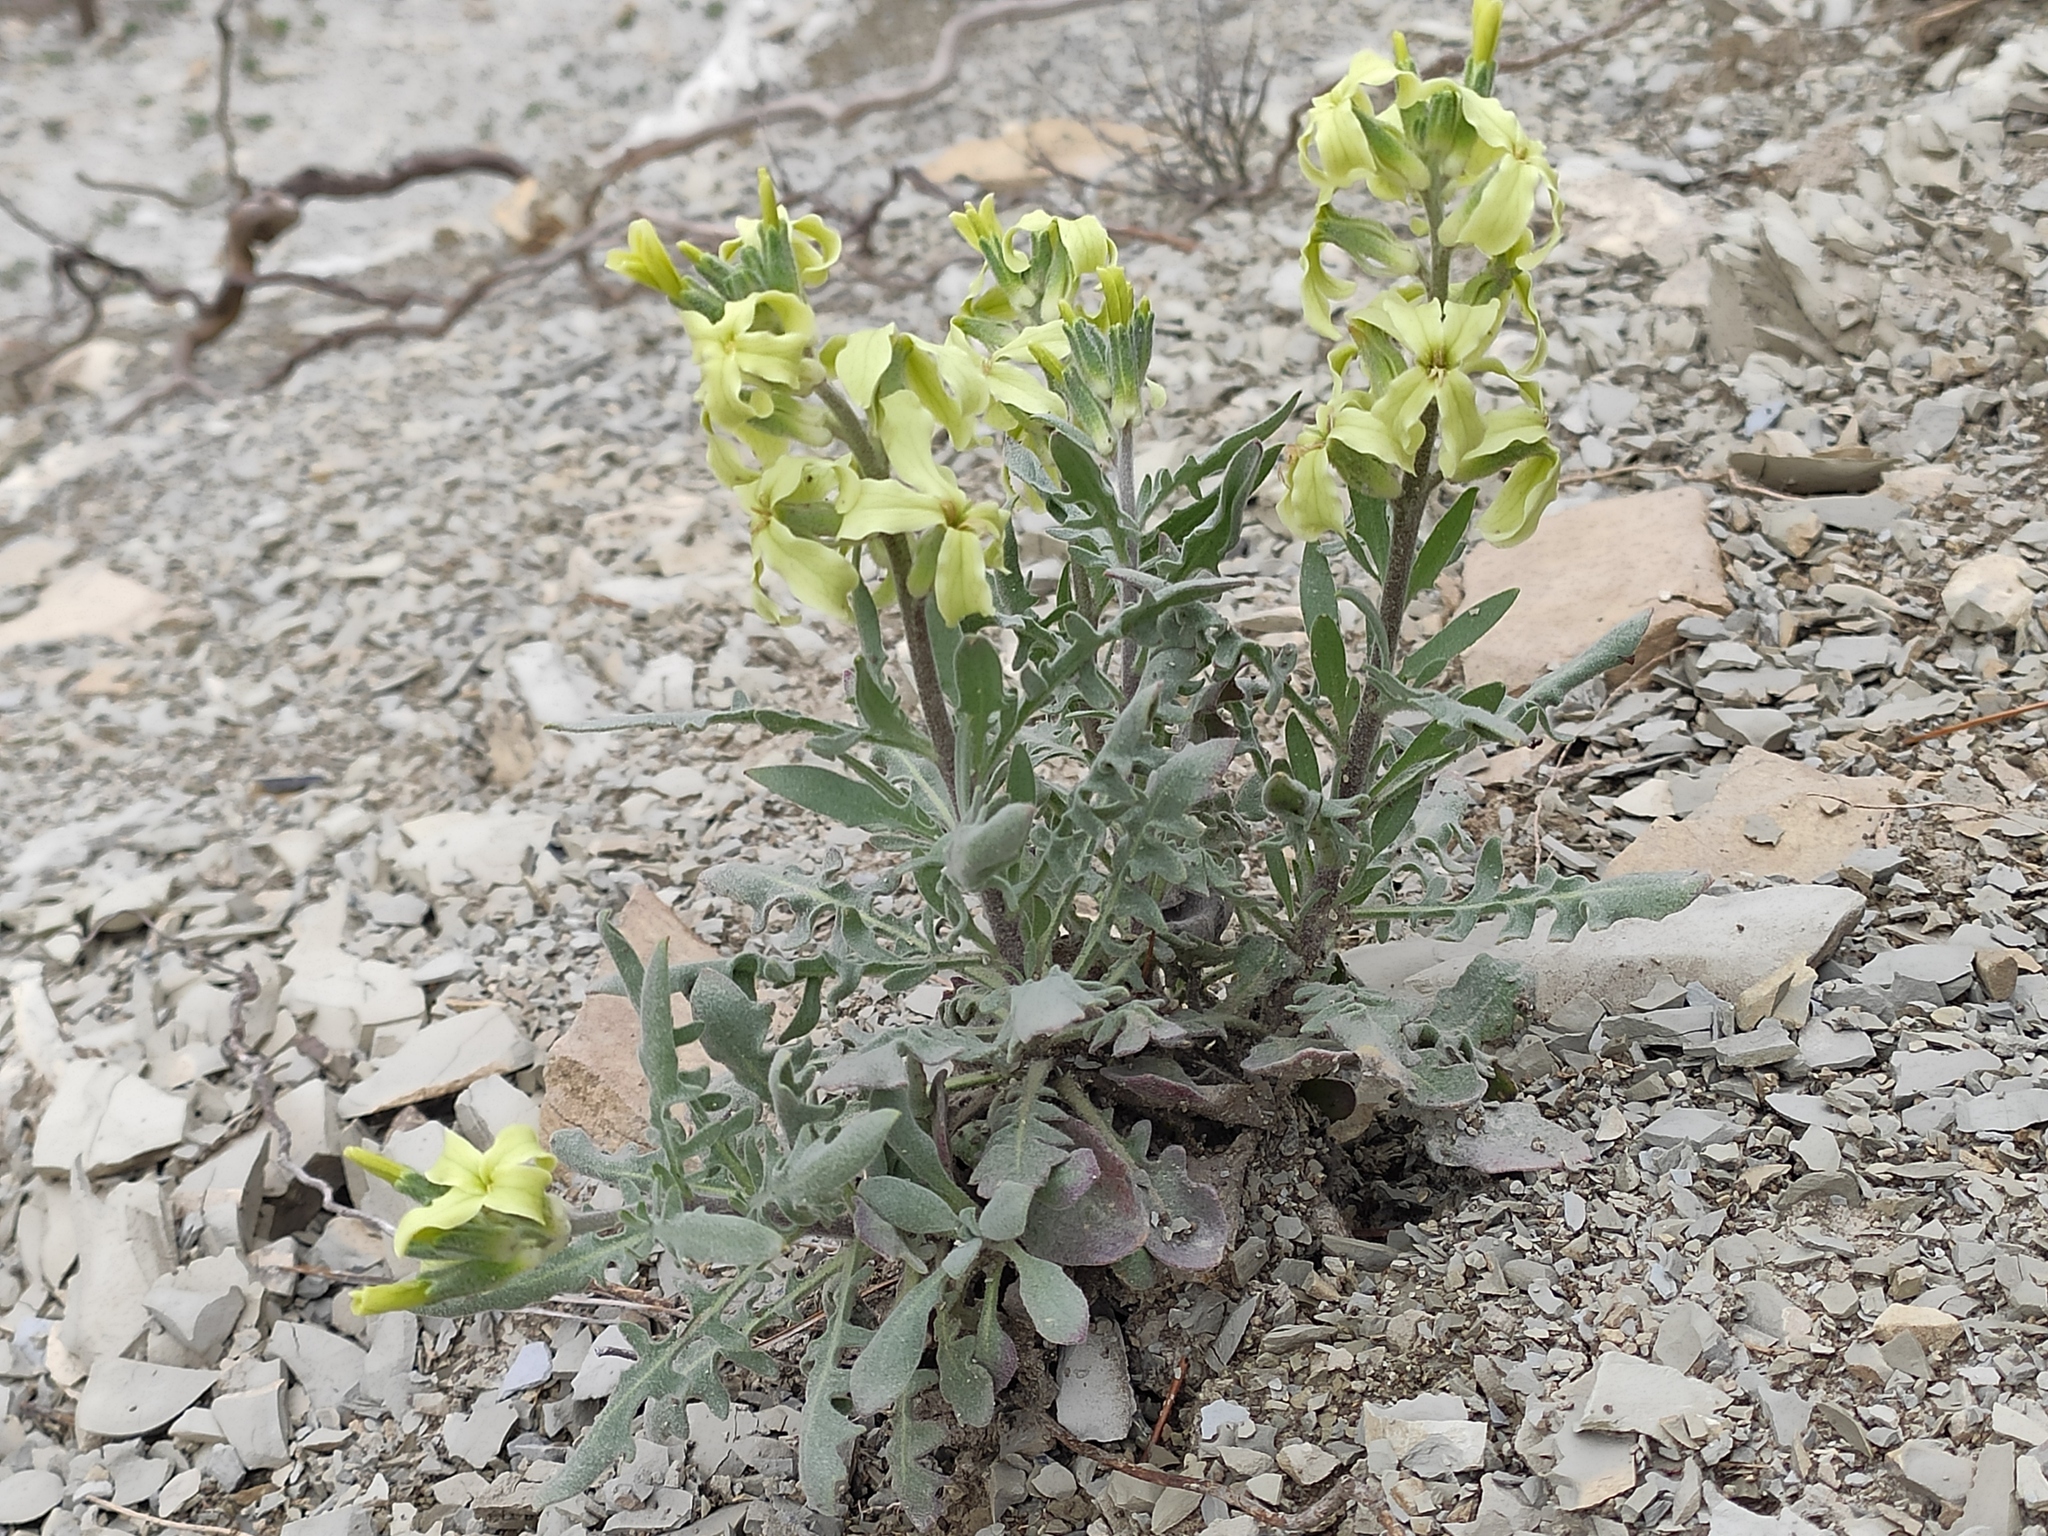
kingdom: Plantae
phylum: Tracheophyta
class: Magnoliopsida
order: Brassicales
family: Brassicaceae
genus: Matthiola
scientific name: Matthiola odoratissima
